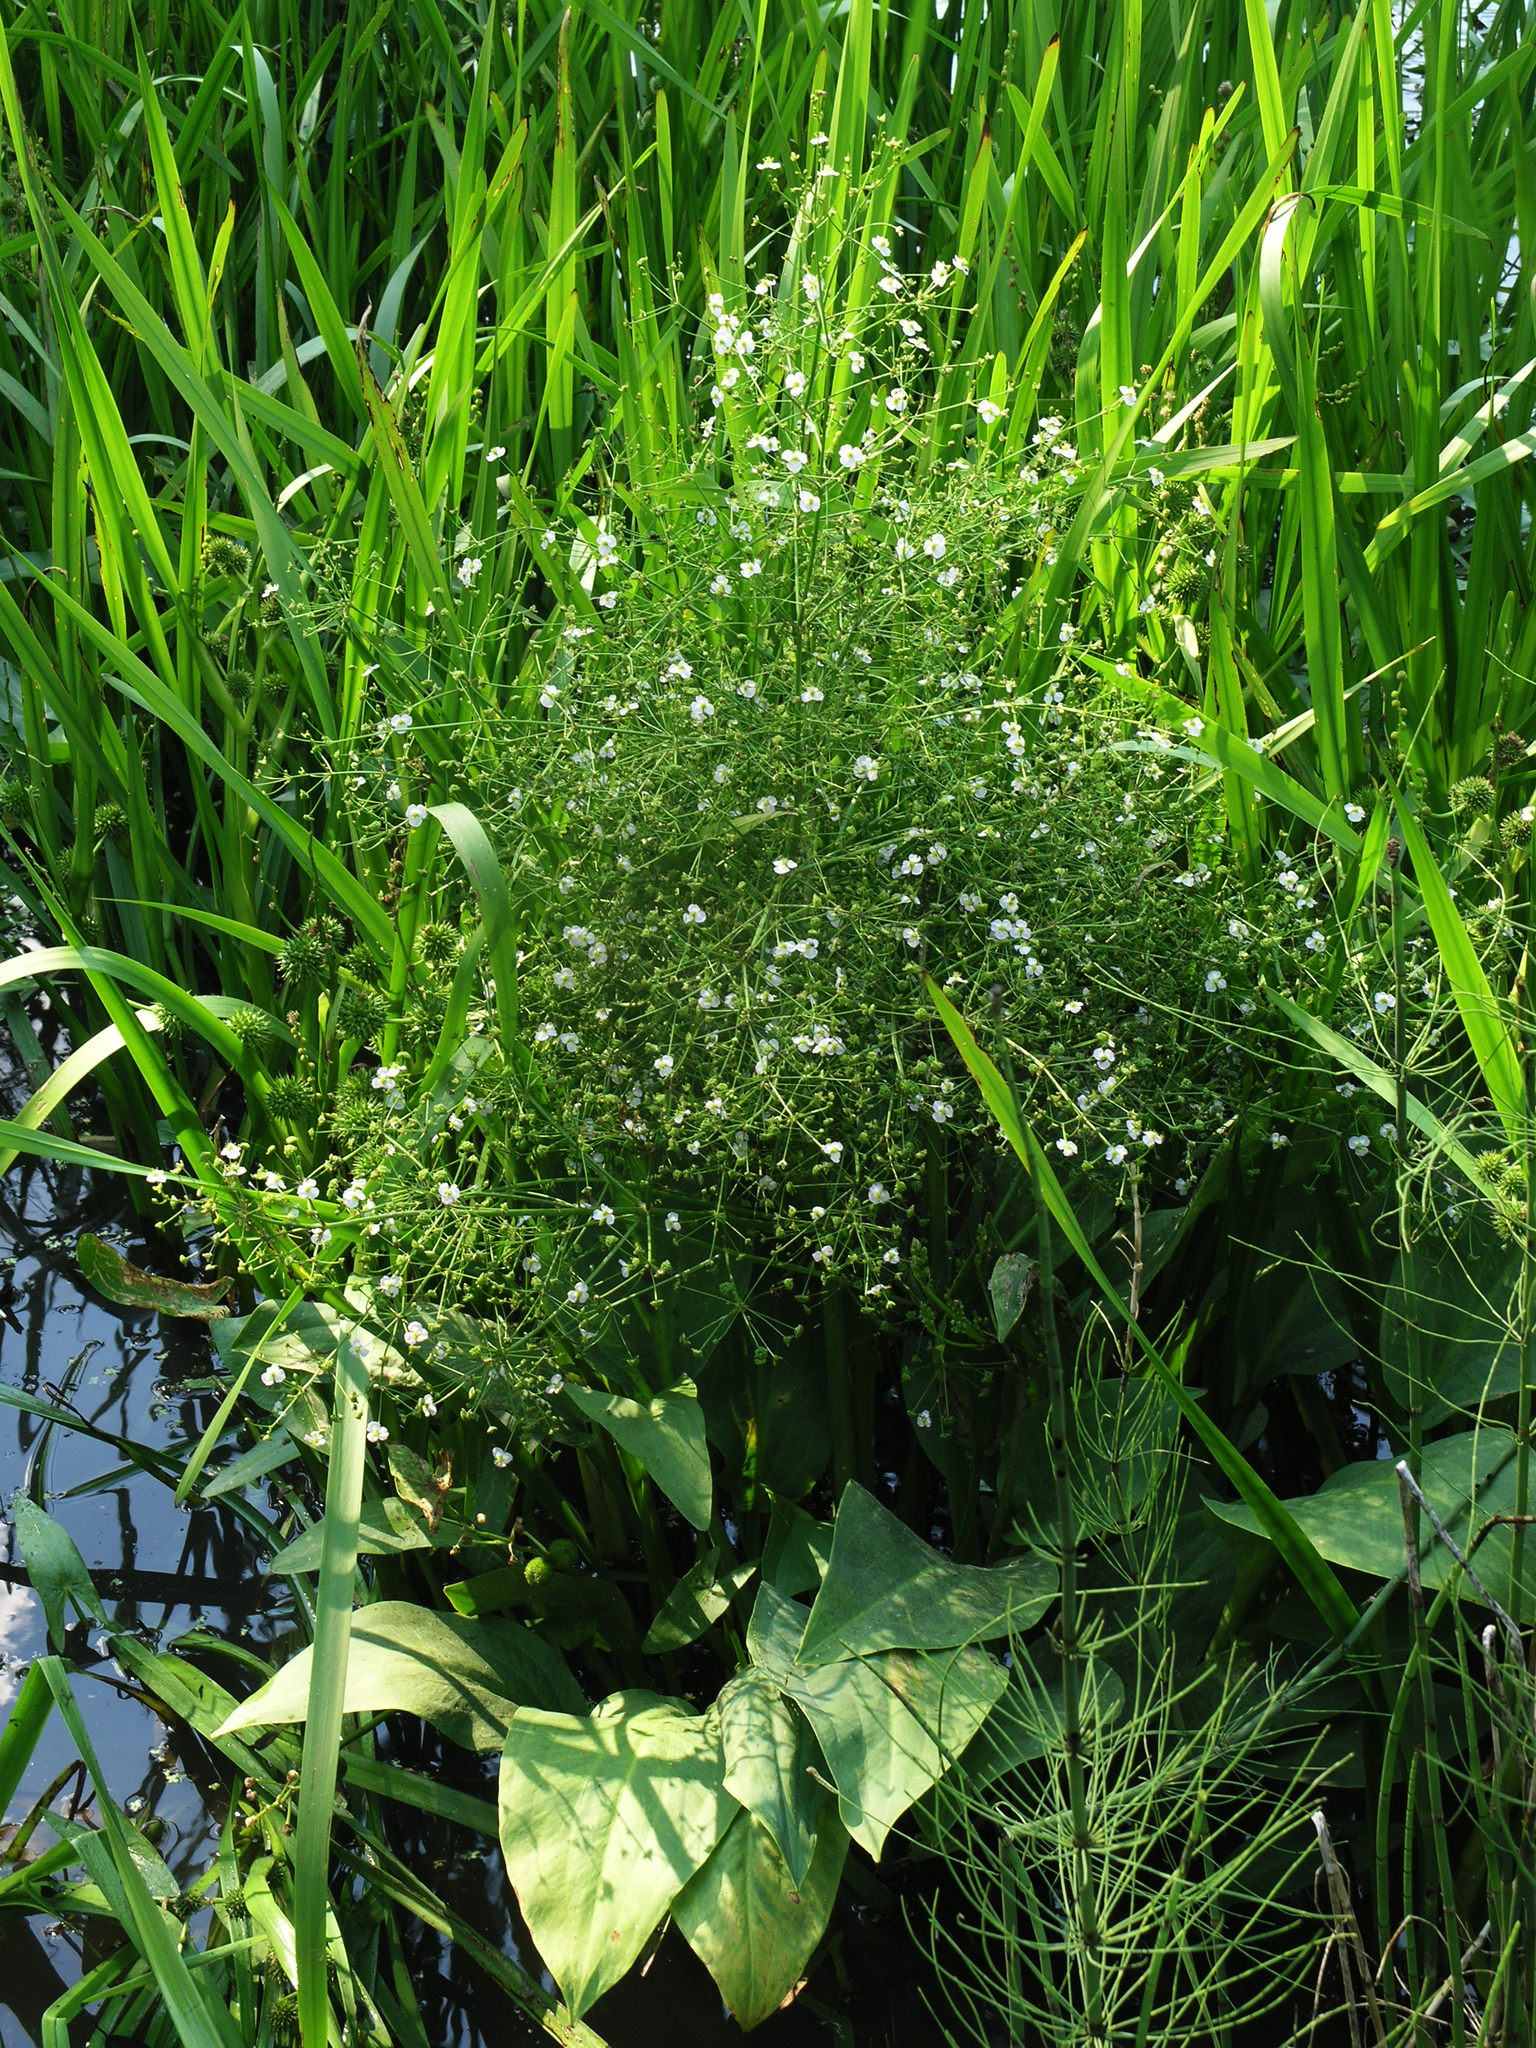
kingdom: Plantae
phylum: Tracheophyta
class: Liliopsida
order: Alismatales
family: Alismataceae
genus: Alisma
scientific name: Alisma plantago-aquatica
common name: Water-plantain
